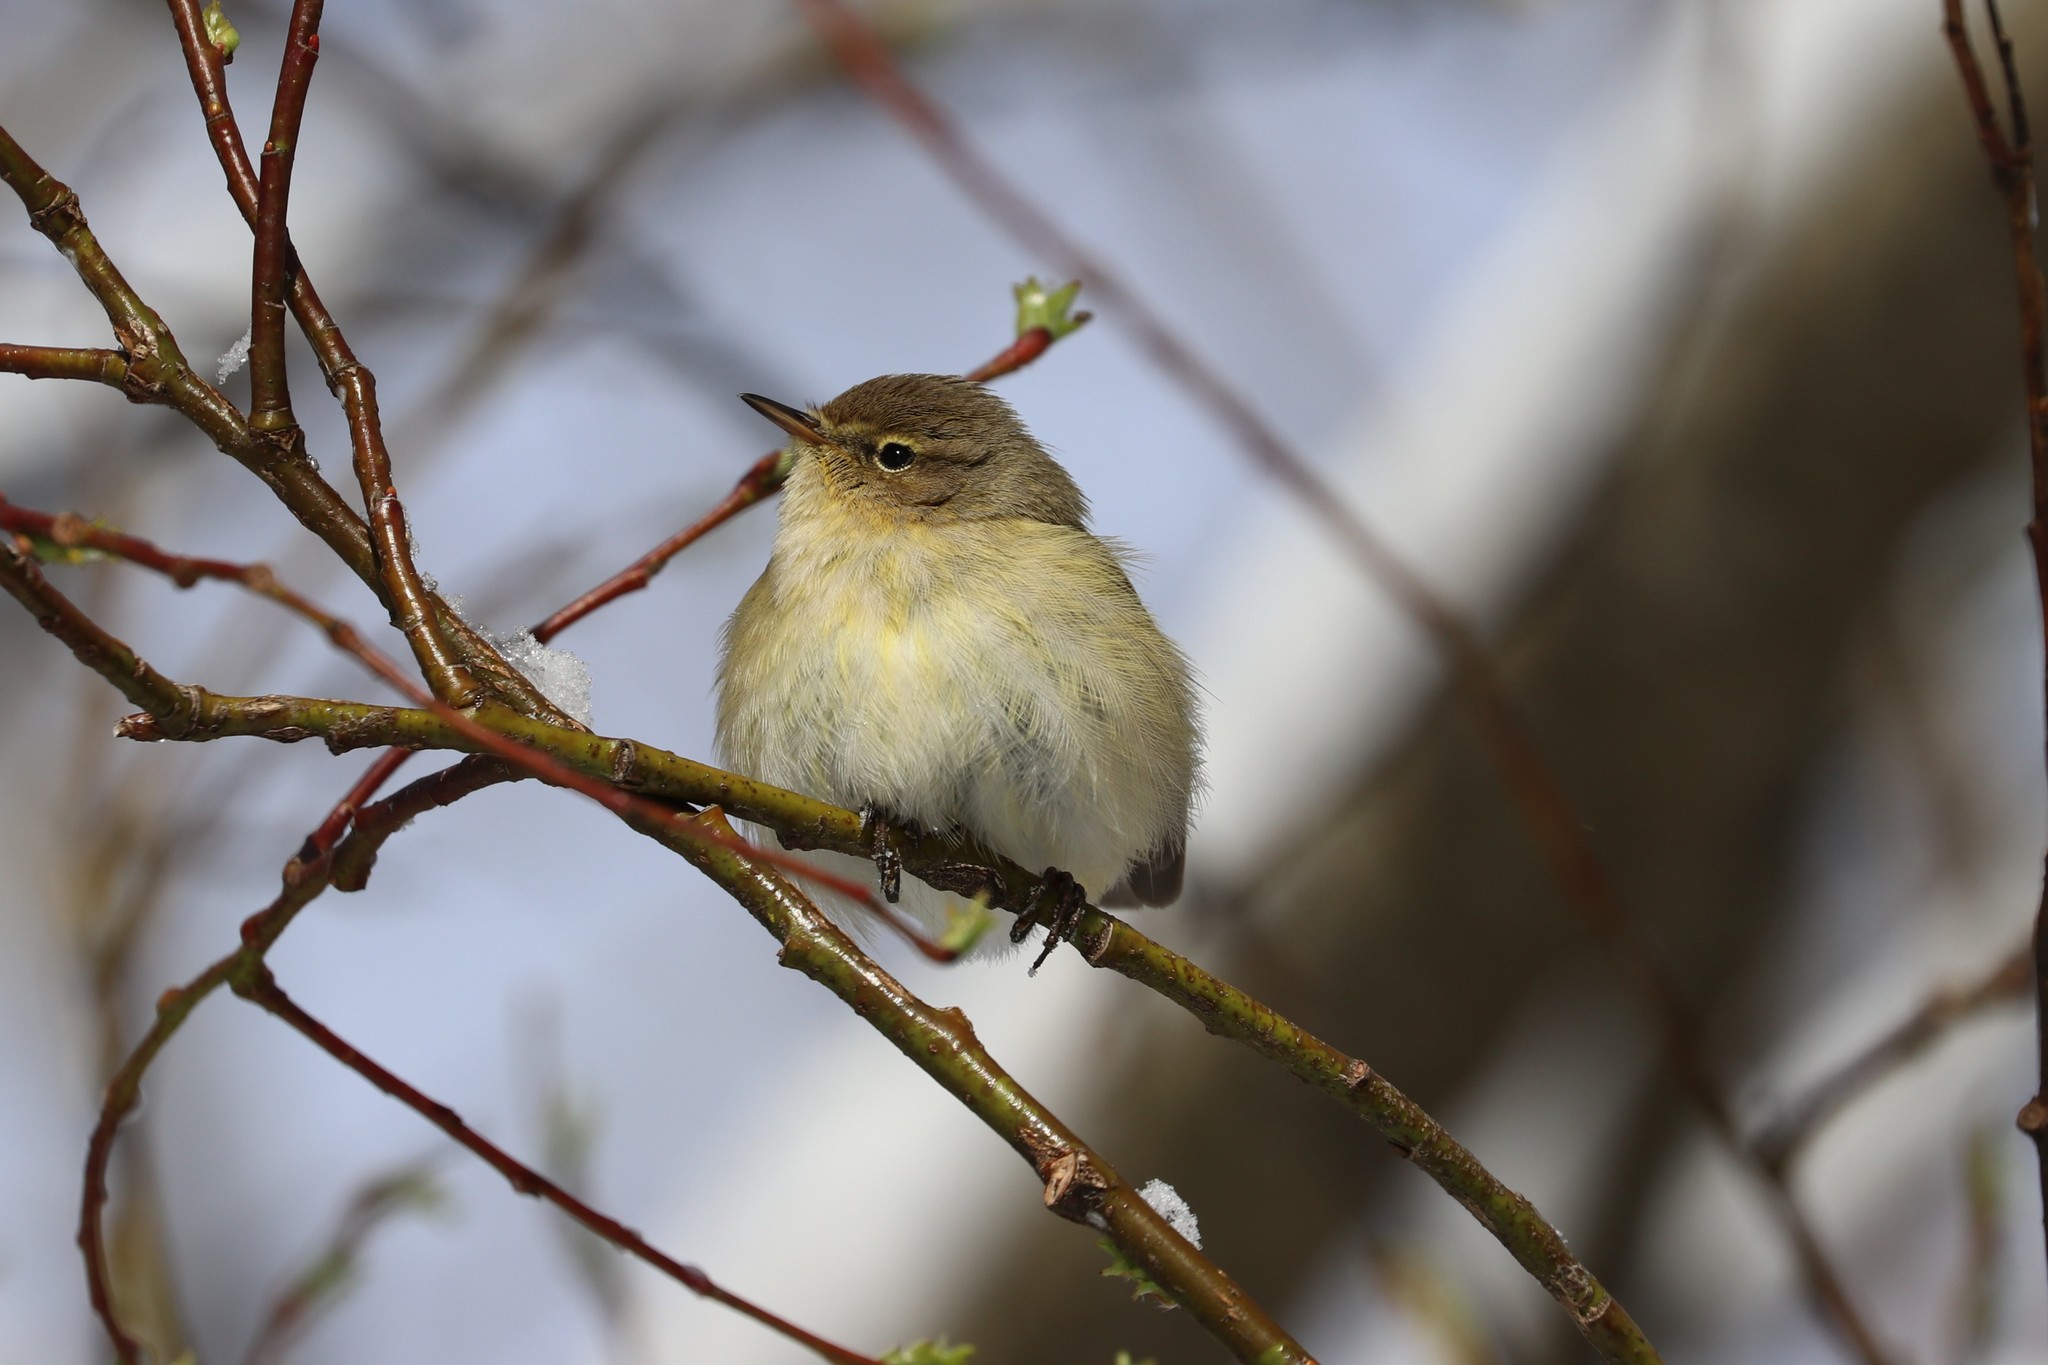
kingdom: Animalia
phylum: Chordata
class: Aves
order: Passeriformes
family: Phylloscopidae
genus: Phylloscopus
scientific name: Phylloscopus collybita
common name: Common chiffchaff
